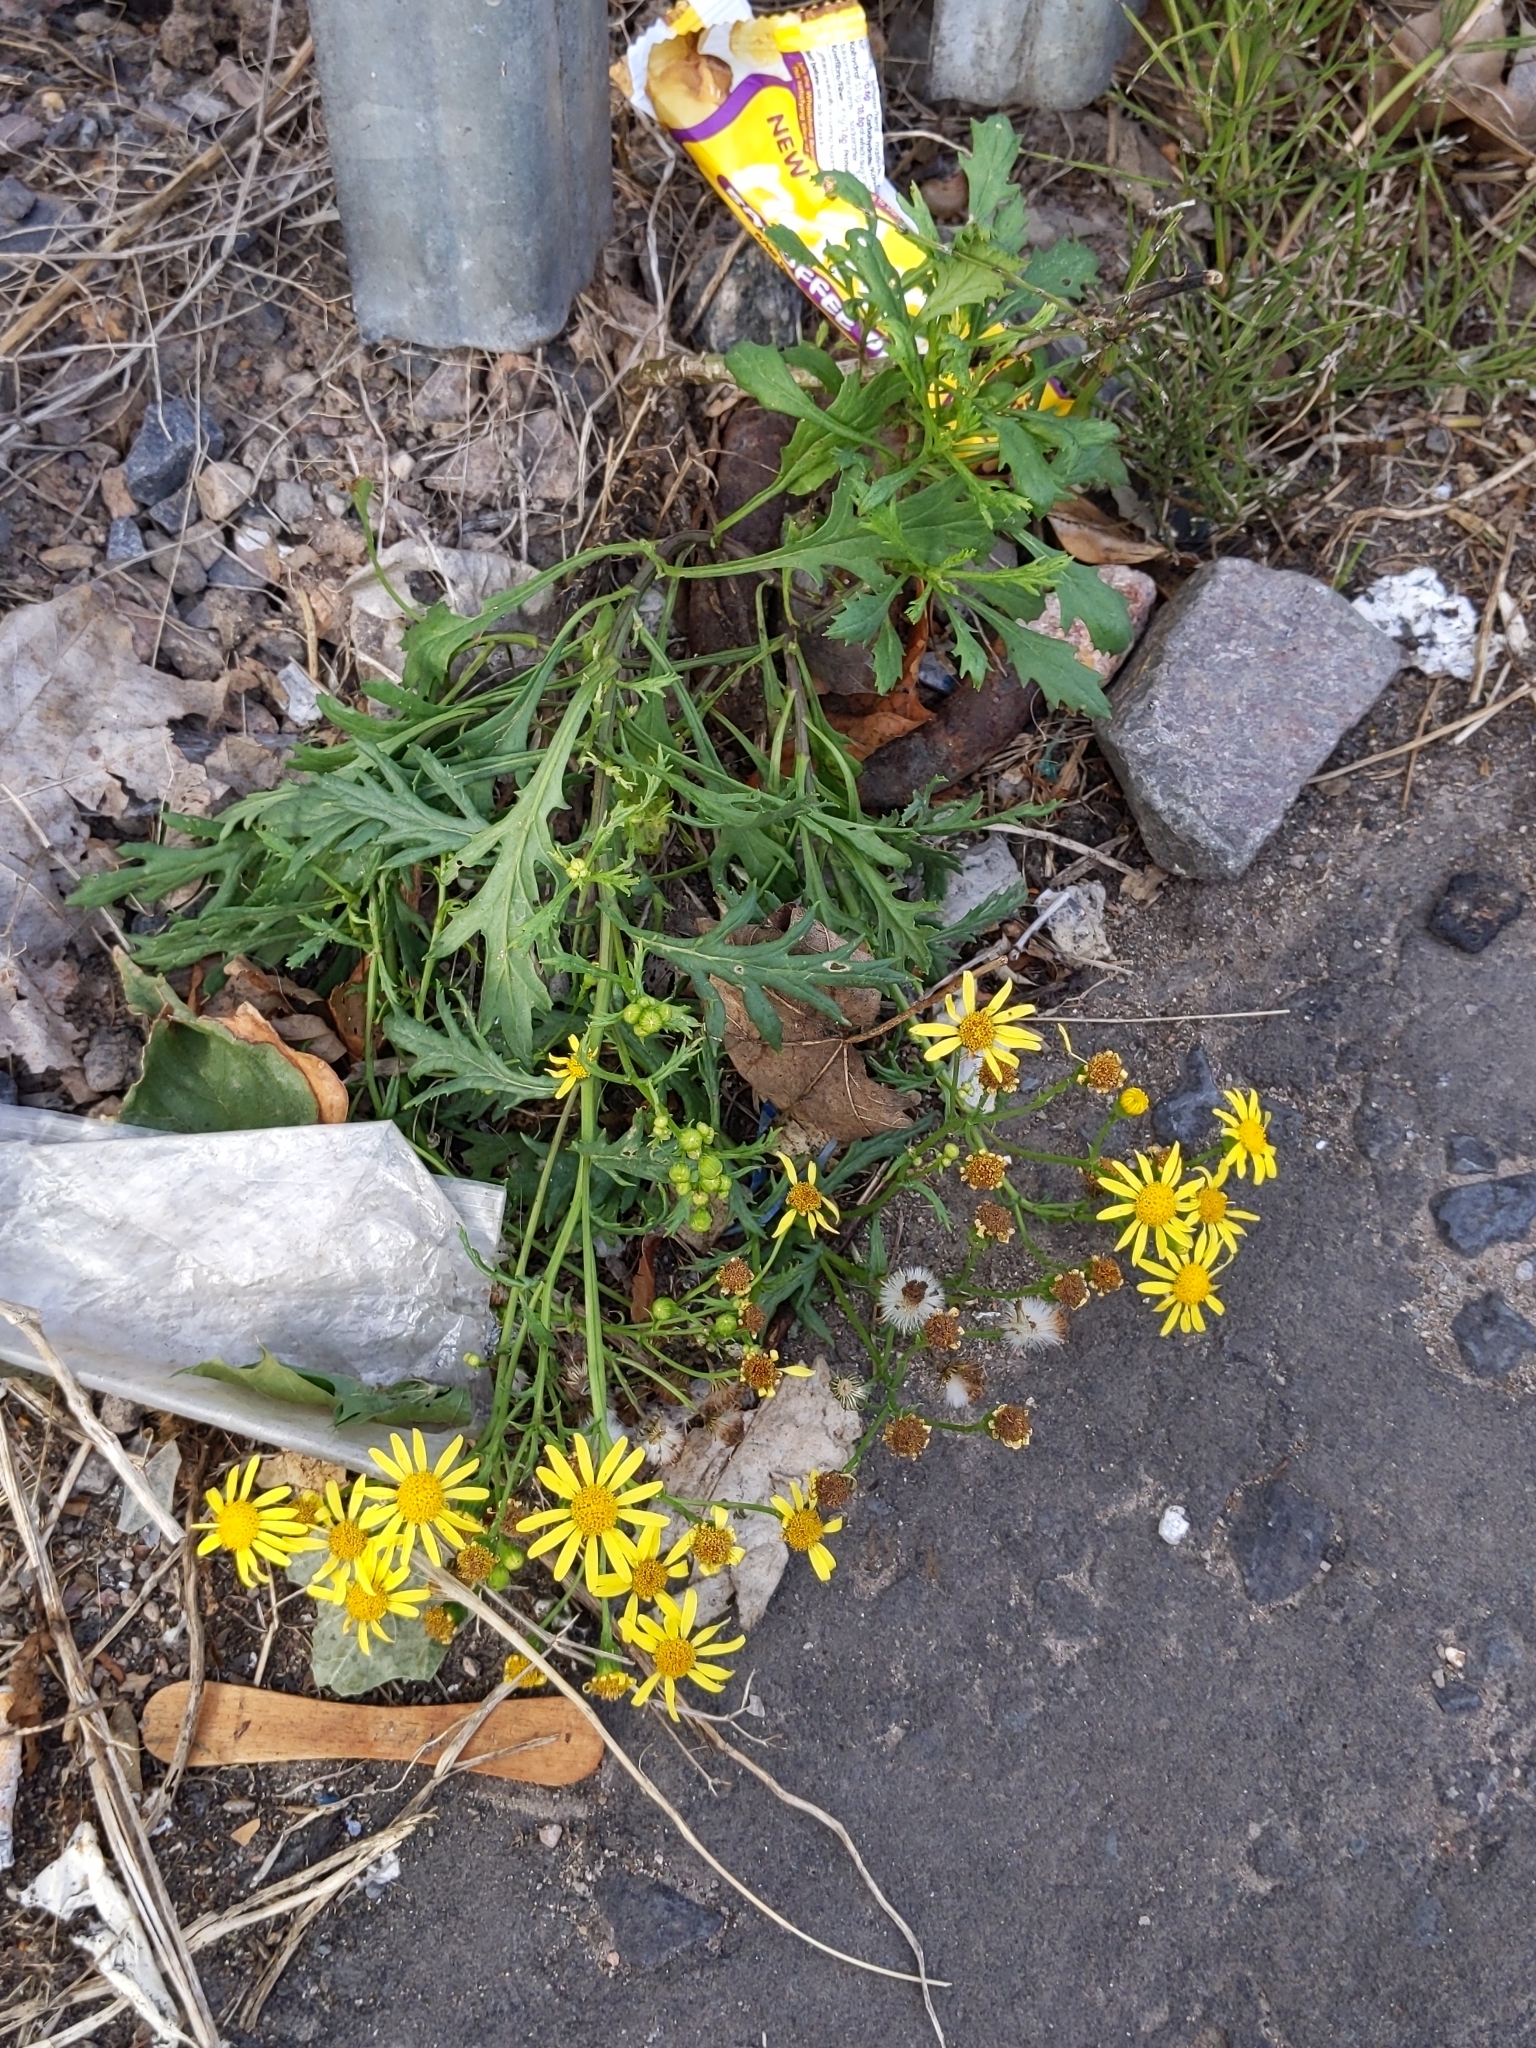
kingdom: Plantae
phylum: Tracheophyta
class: Magnoliopsida
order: Asterales
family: Asteraceae
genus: Senecio
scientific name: Senecio squalidus
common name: Oxford ragwort
